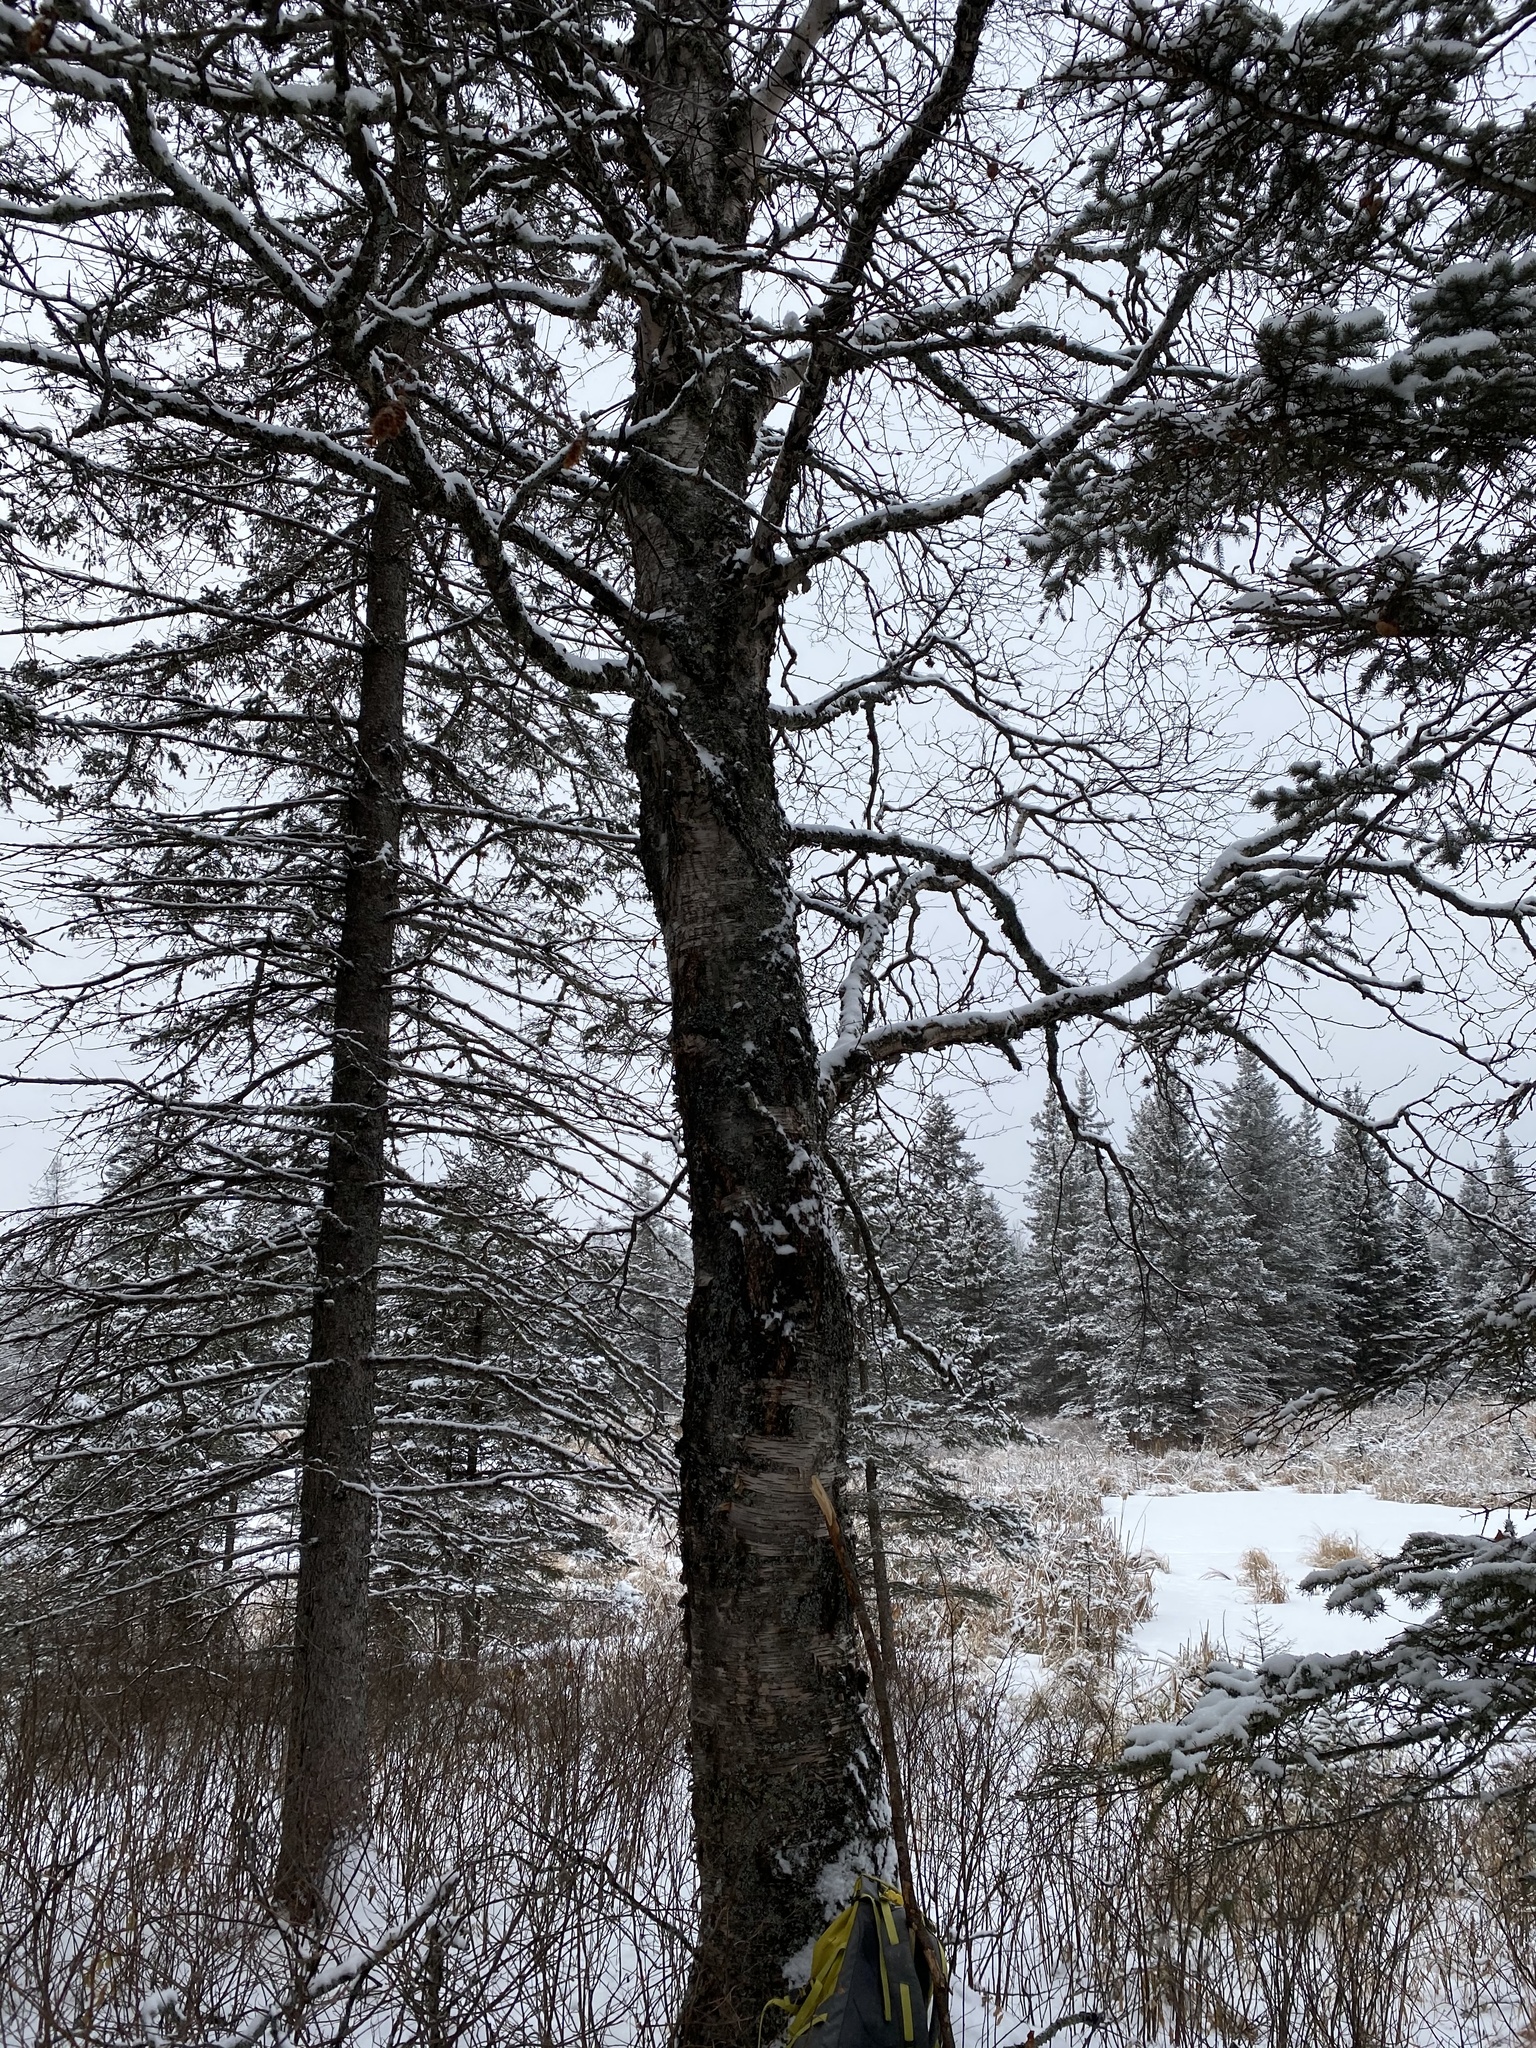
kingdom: Plantae
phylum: Tracheophyta
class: Magnoliopsida
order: Fagales
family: Betulaceae
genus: Betula
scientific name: Betula papyrifera
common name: Paper birch
